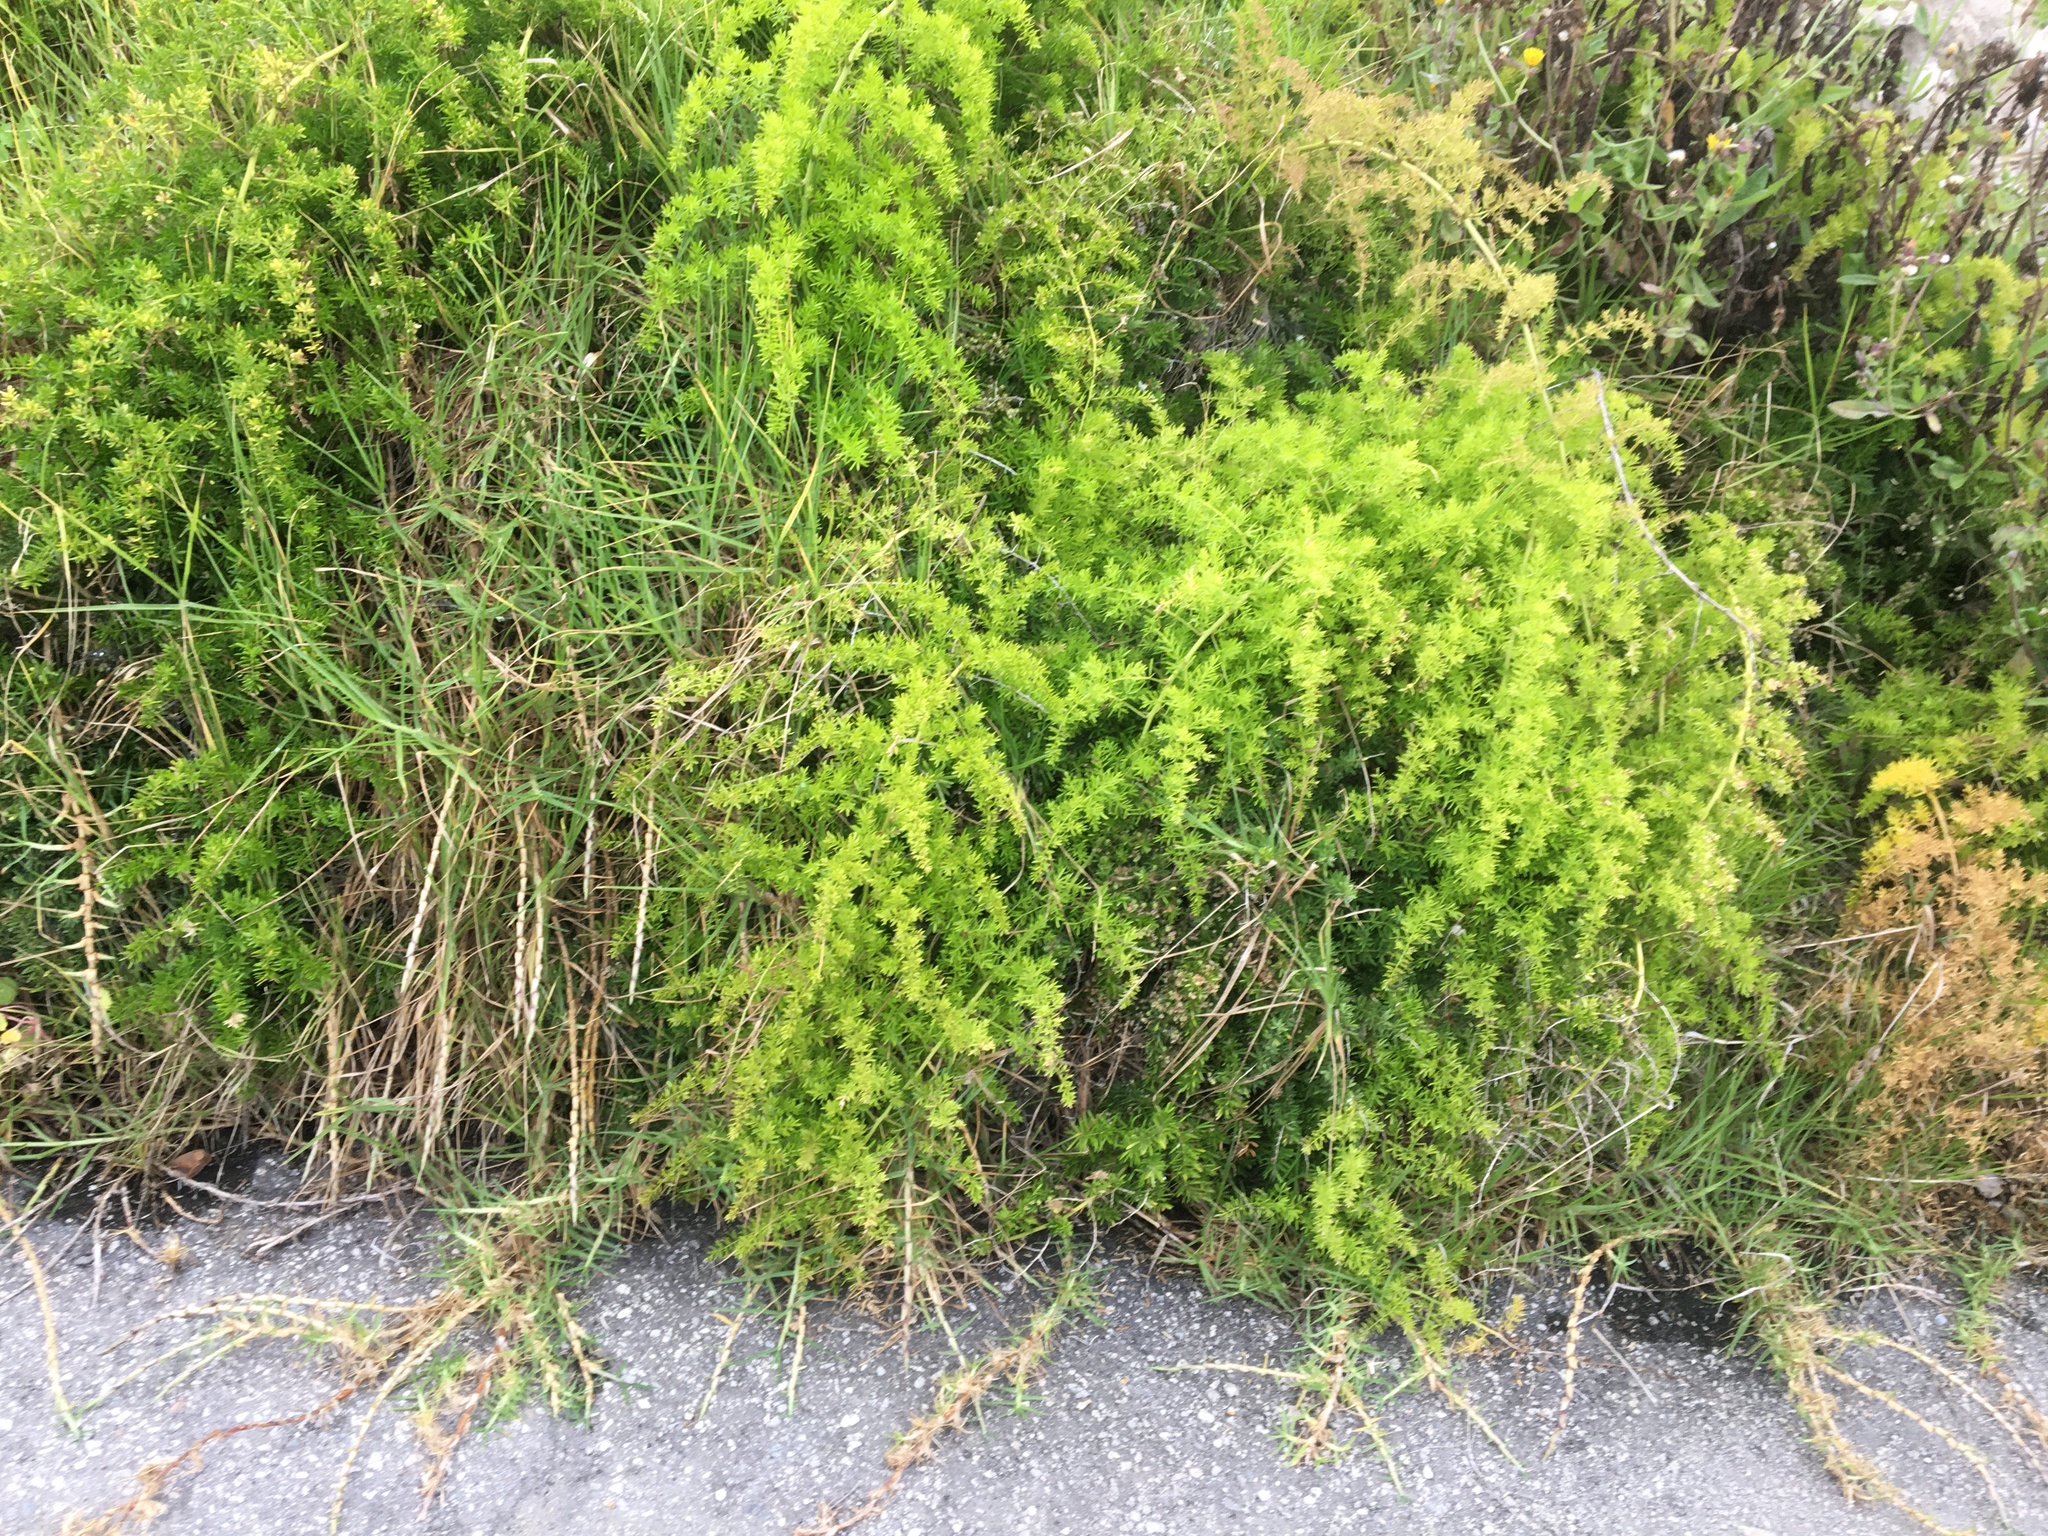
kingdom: Plantae
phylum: Tracheophyta
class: Liliopsida
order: Asparagales
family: Asparagaceae
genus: Asparagus
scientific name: Asparagus aethiopicus
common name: Sprenger's asparagus fern
